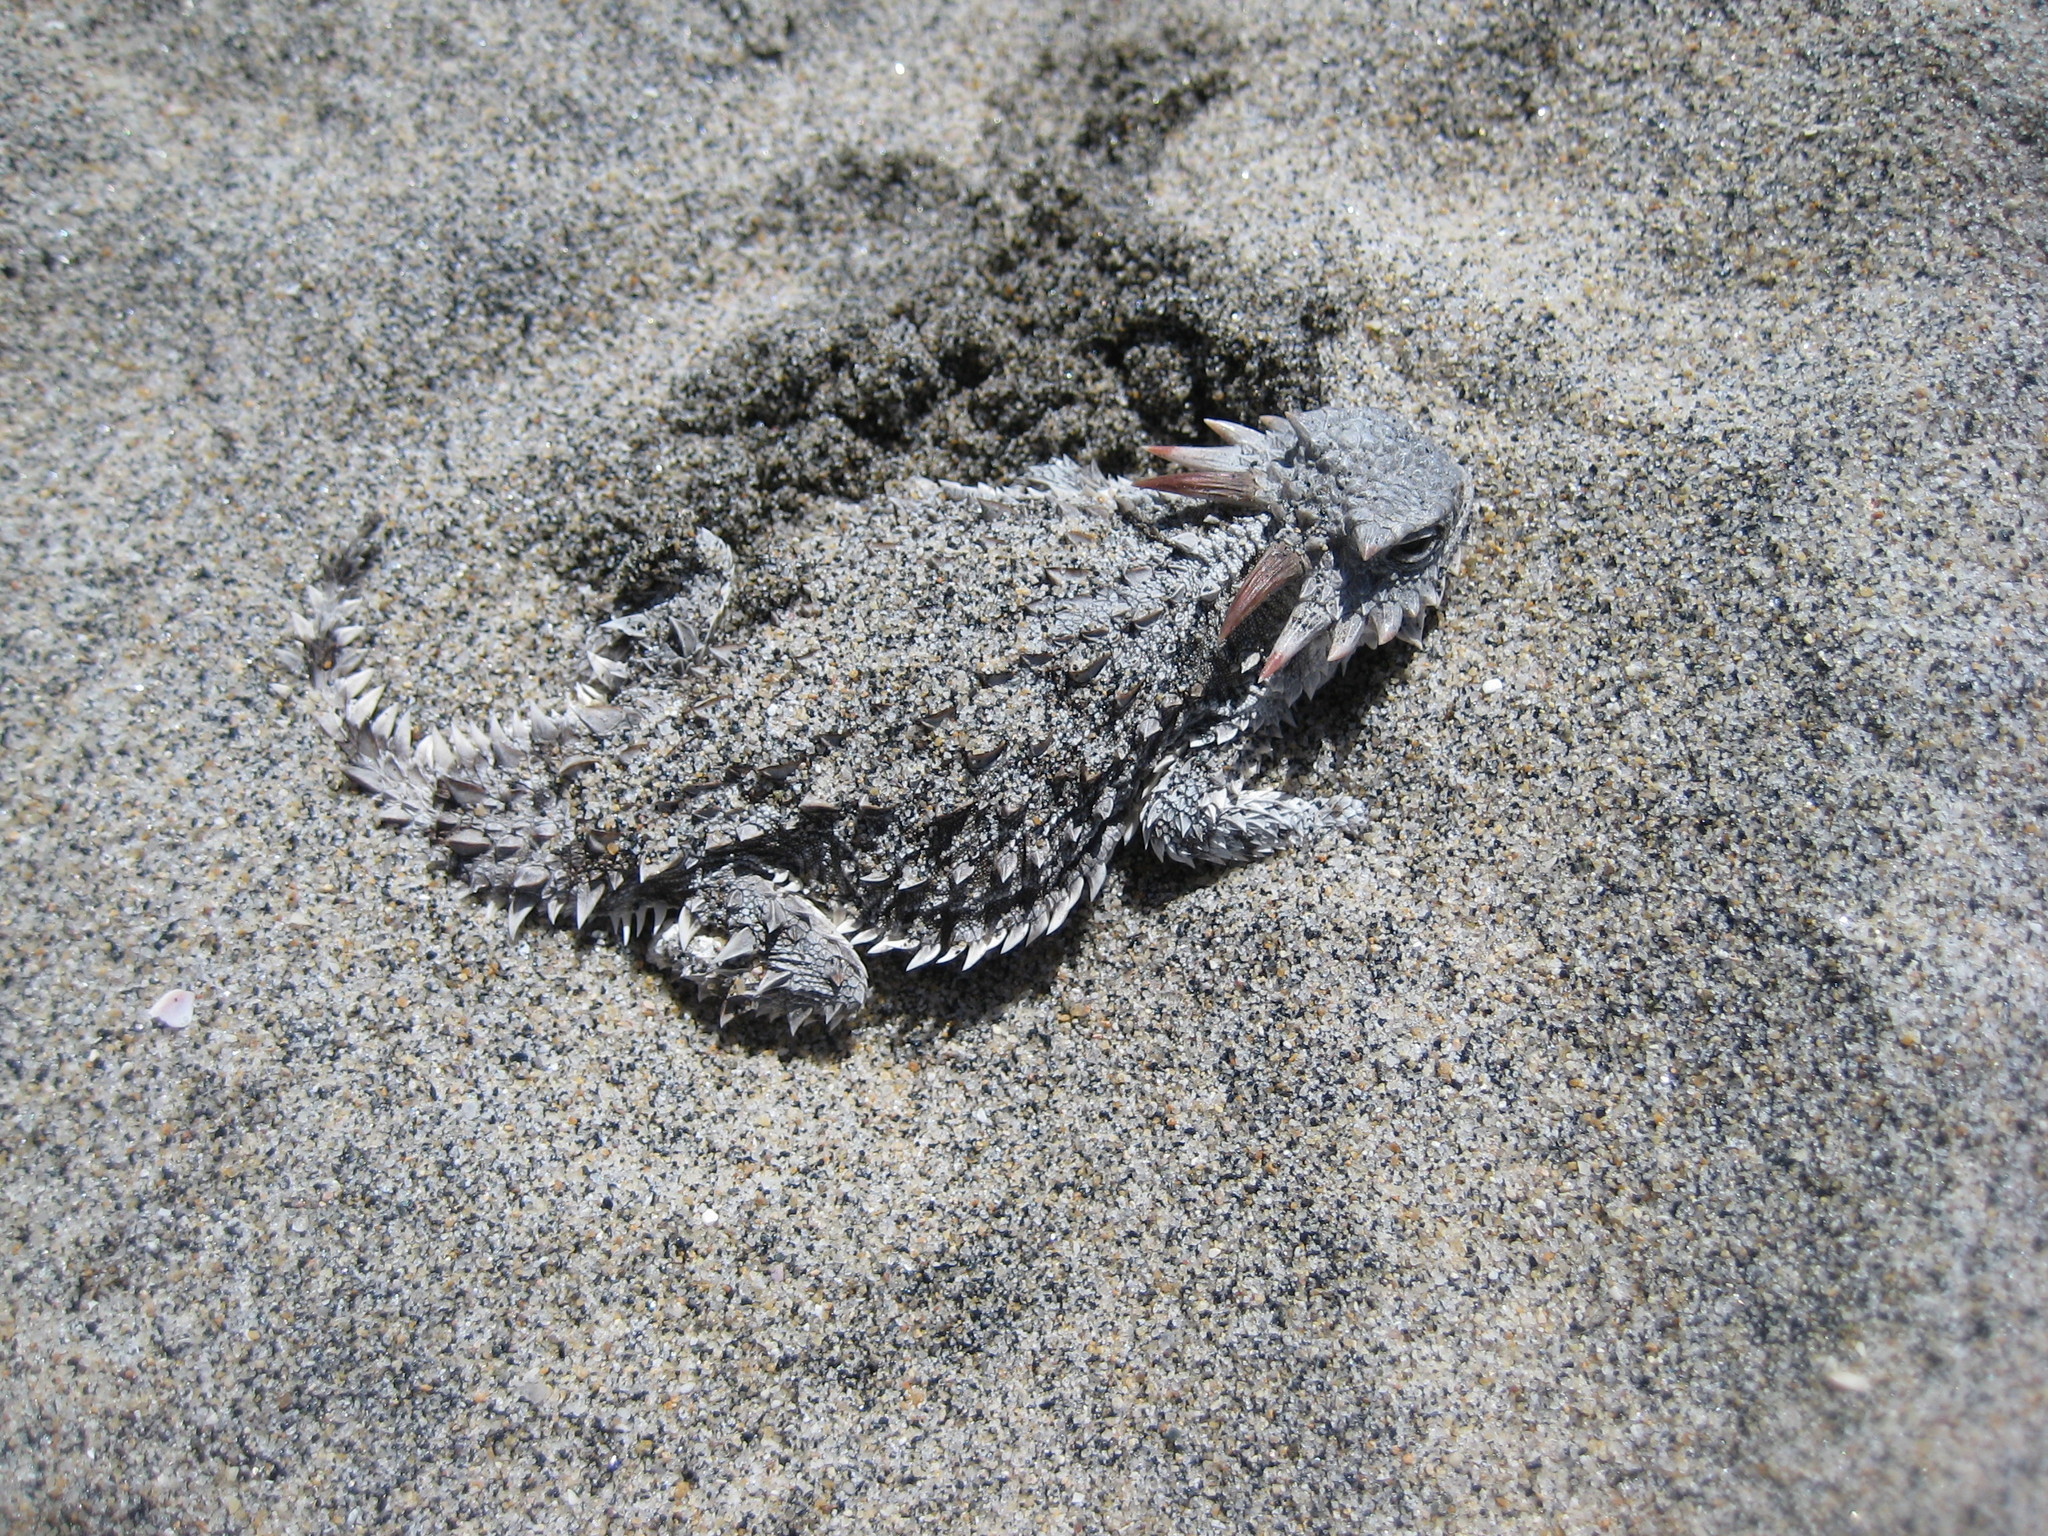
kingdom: Animalia
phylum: Chordata
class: Squamata
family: Phrynosomatidae
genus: Phrynosoma
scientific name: Phrynosoma blainvillii
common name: San diego horned lizard
